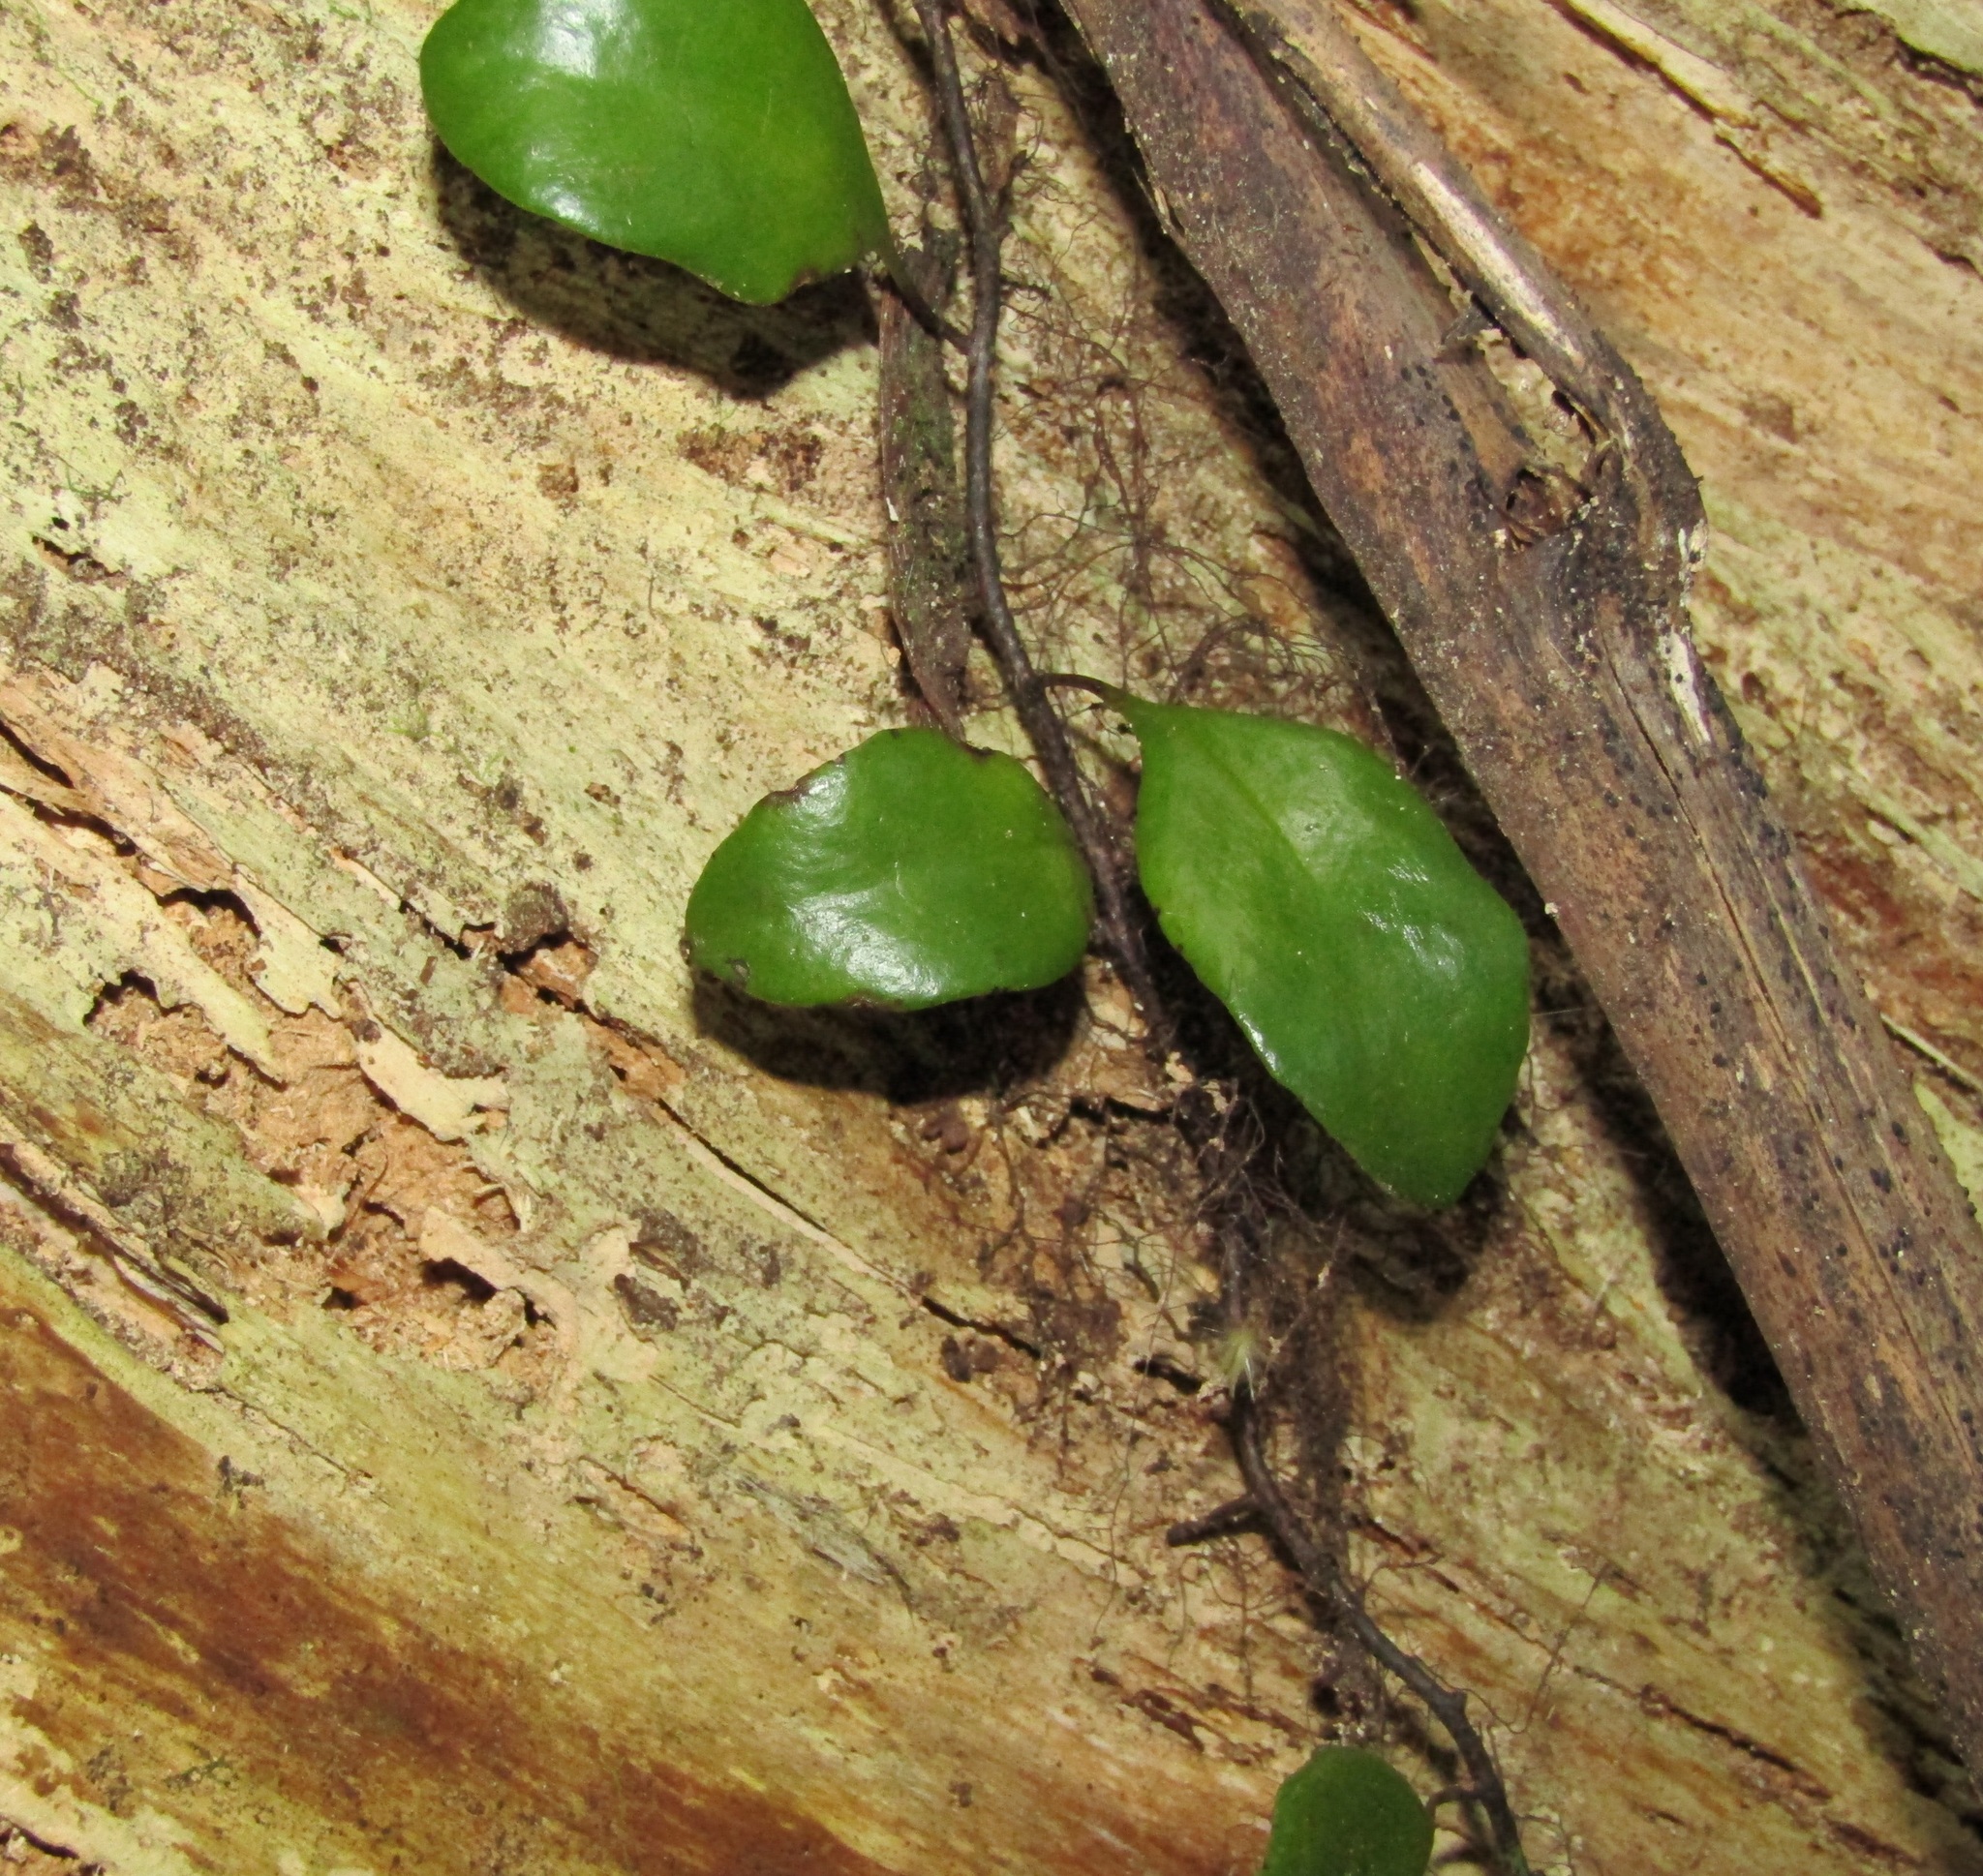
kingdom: Plantae
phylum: Tracheophyta
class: Polypodiopsida
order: Polypodiales
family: Polypodiaceae
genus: Pyrrosia
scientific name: Pyrrosia eleagnifolia
